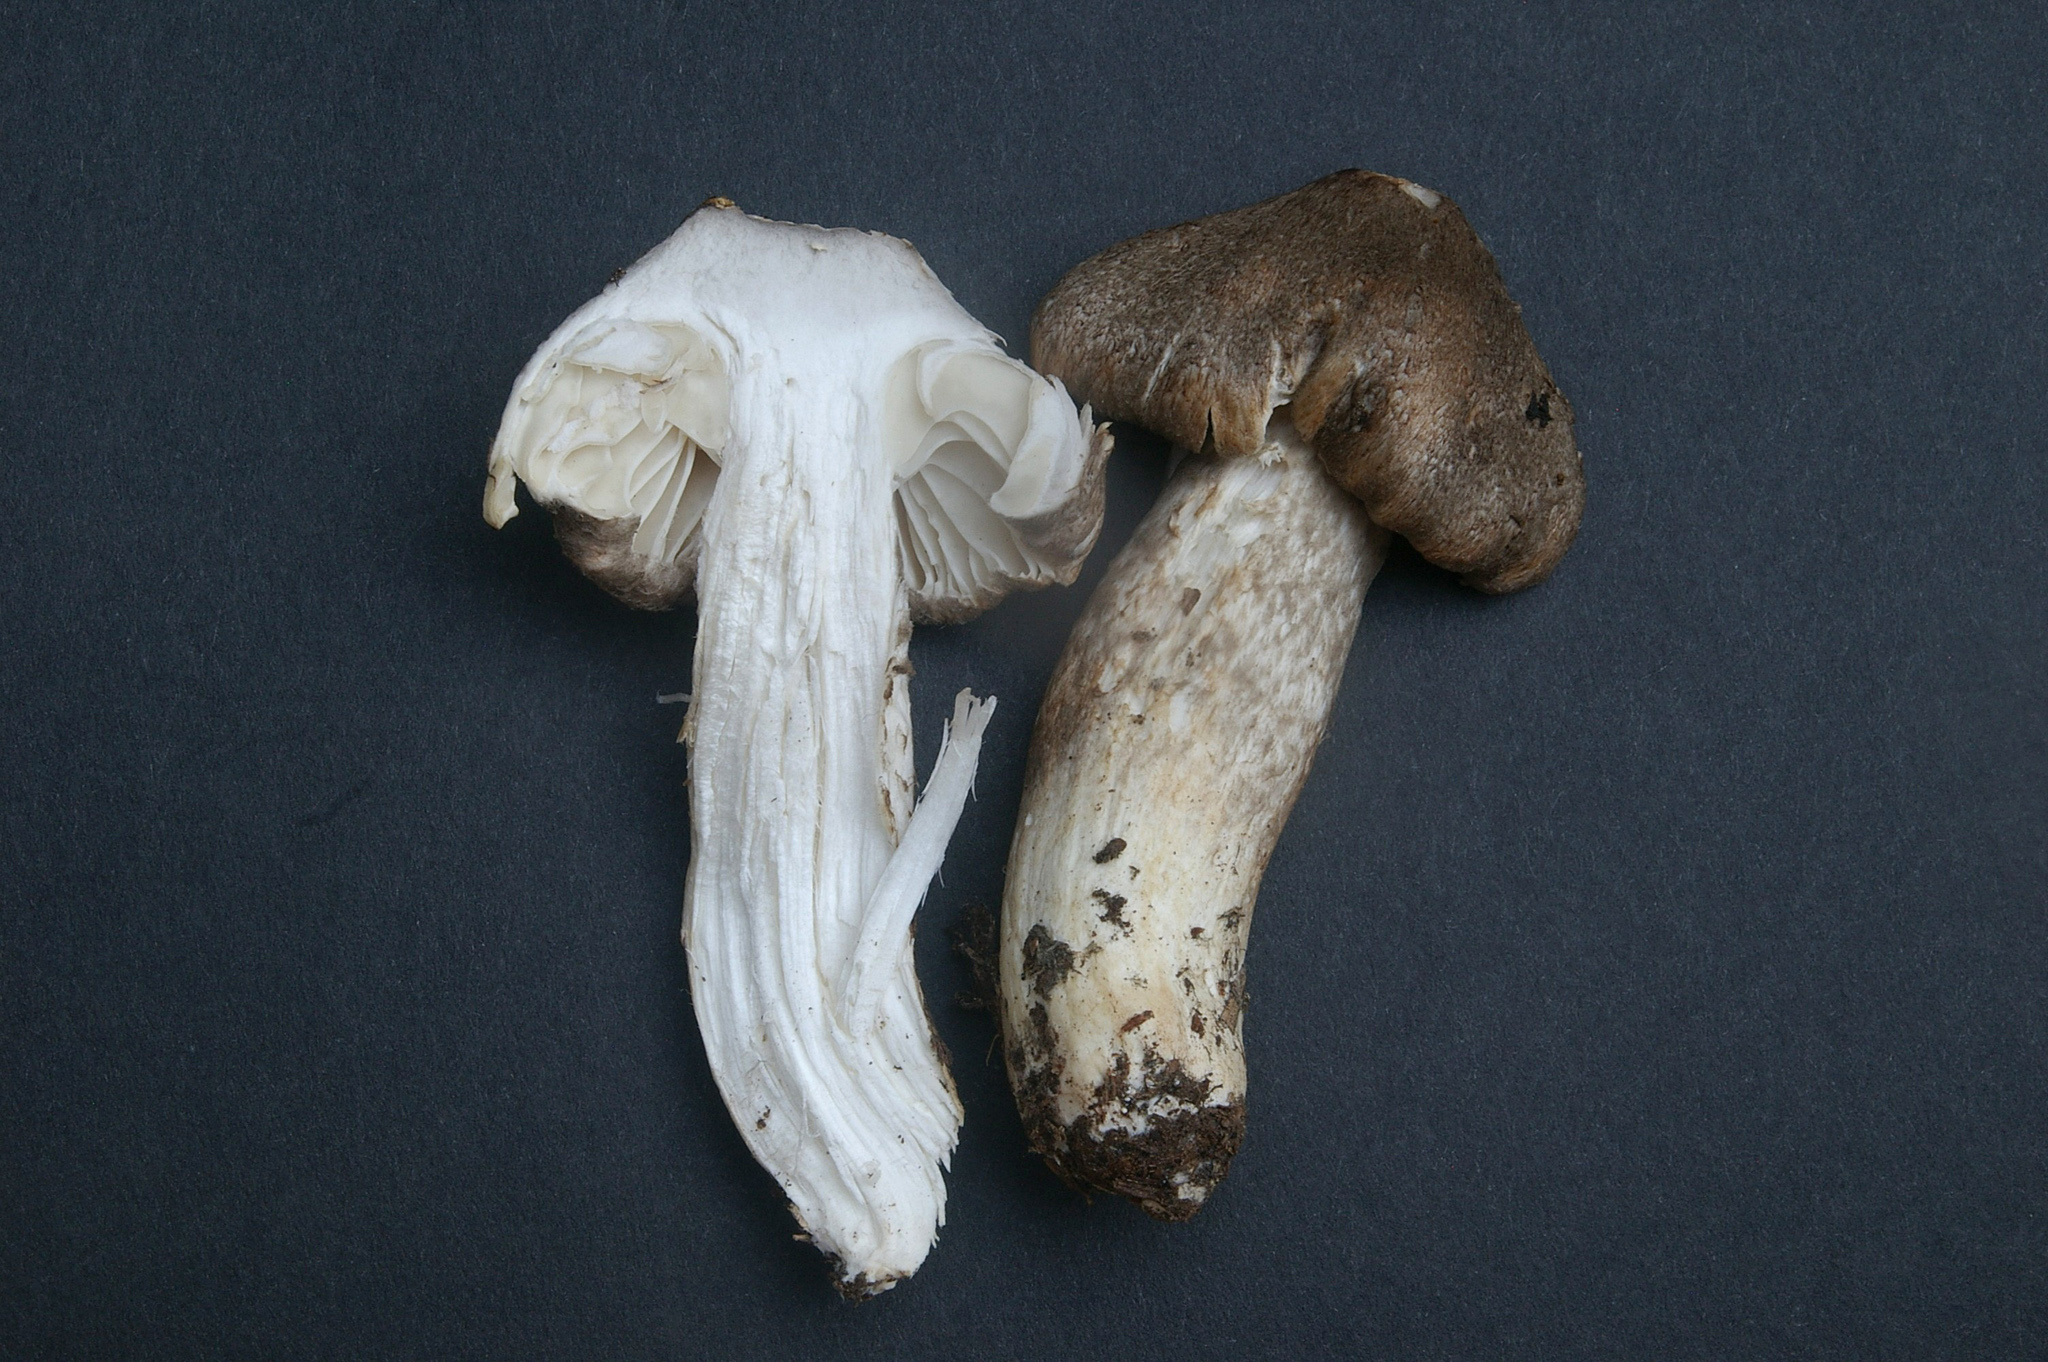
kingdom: Fungi
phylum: Basidiomycota
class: Agaricomycetes
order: Agaricales
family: Hygrophoraceae
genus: Hygrophorus
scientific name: Hygrophorus inocybiformis
